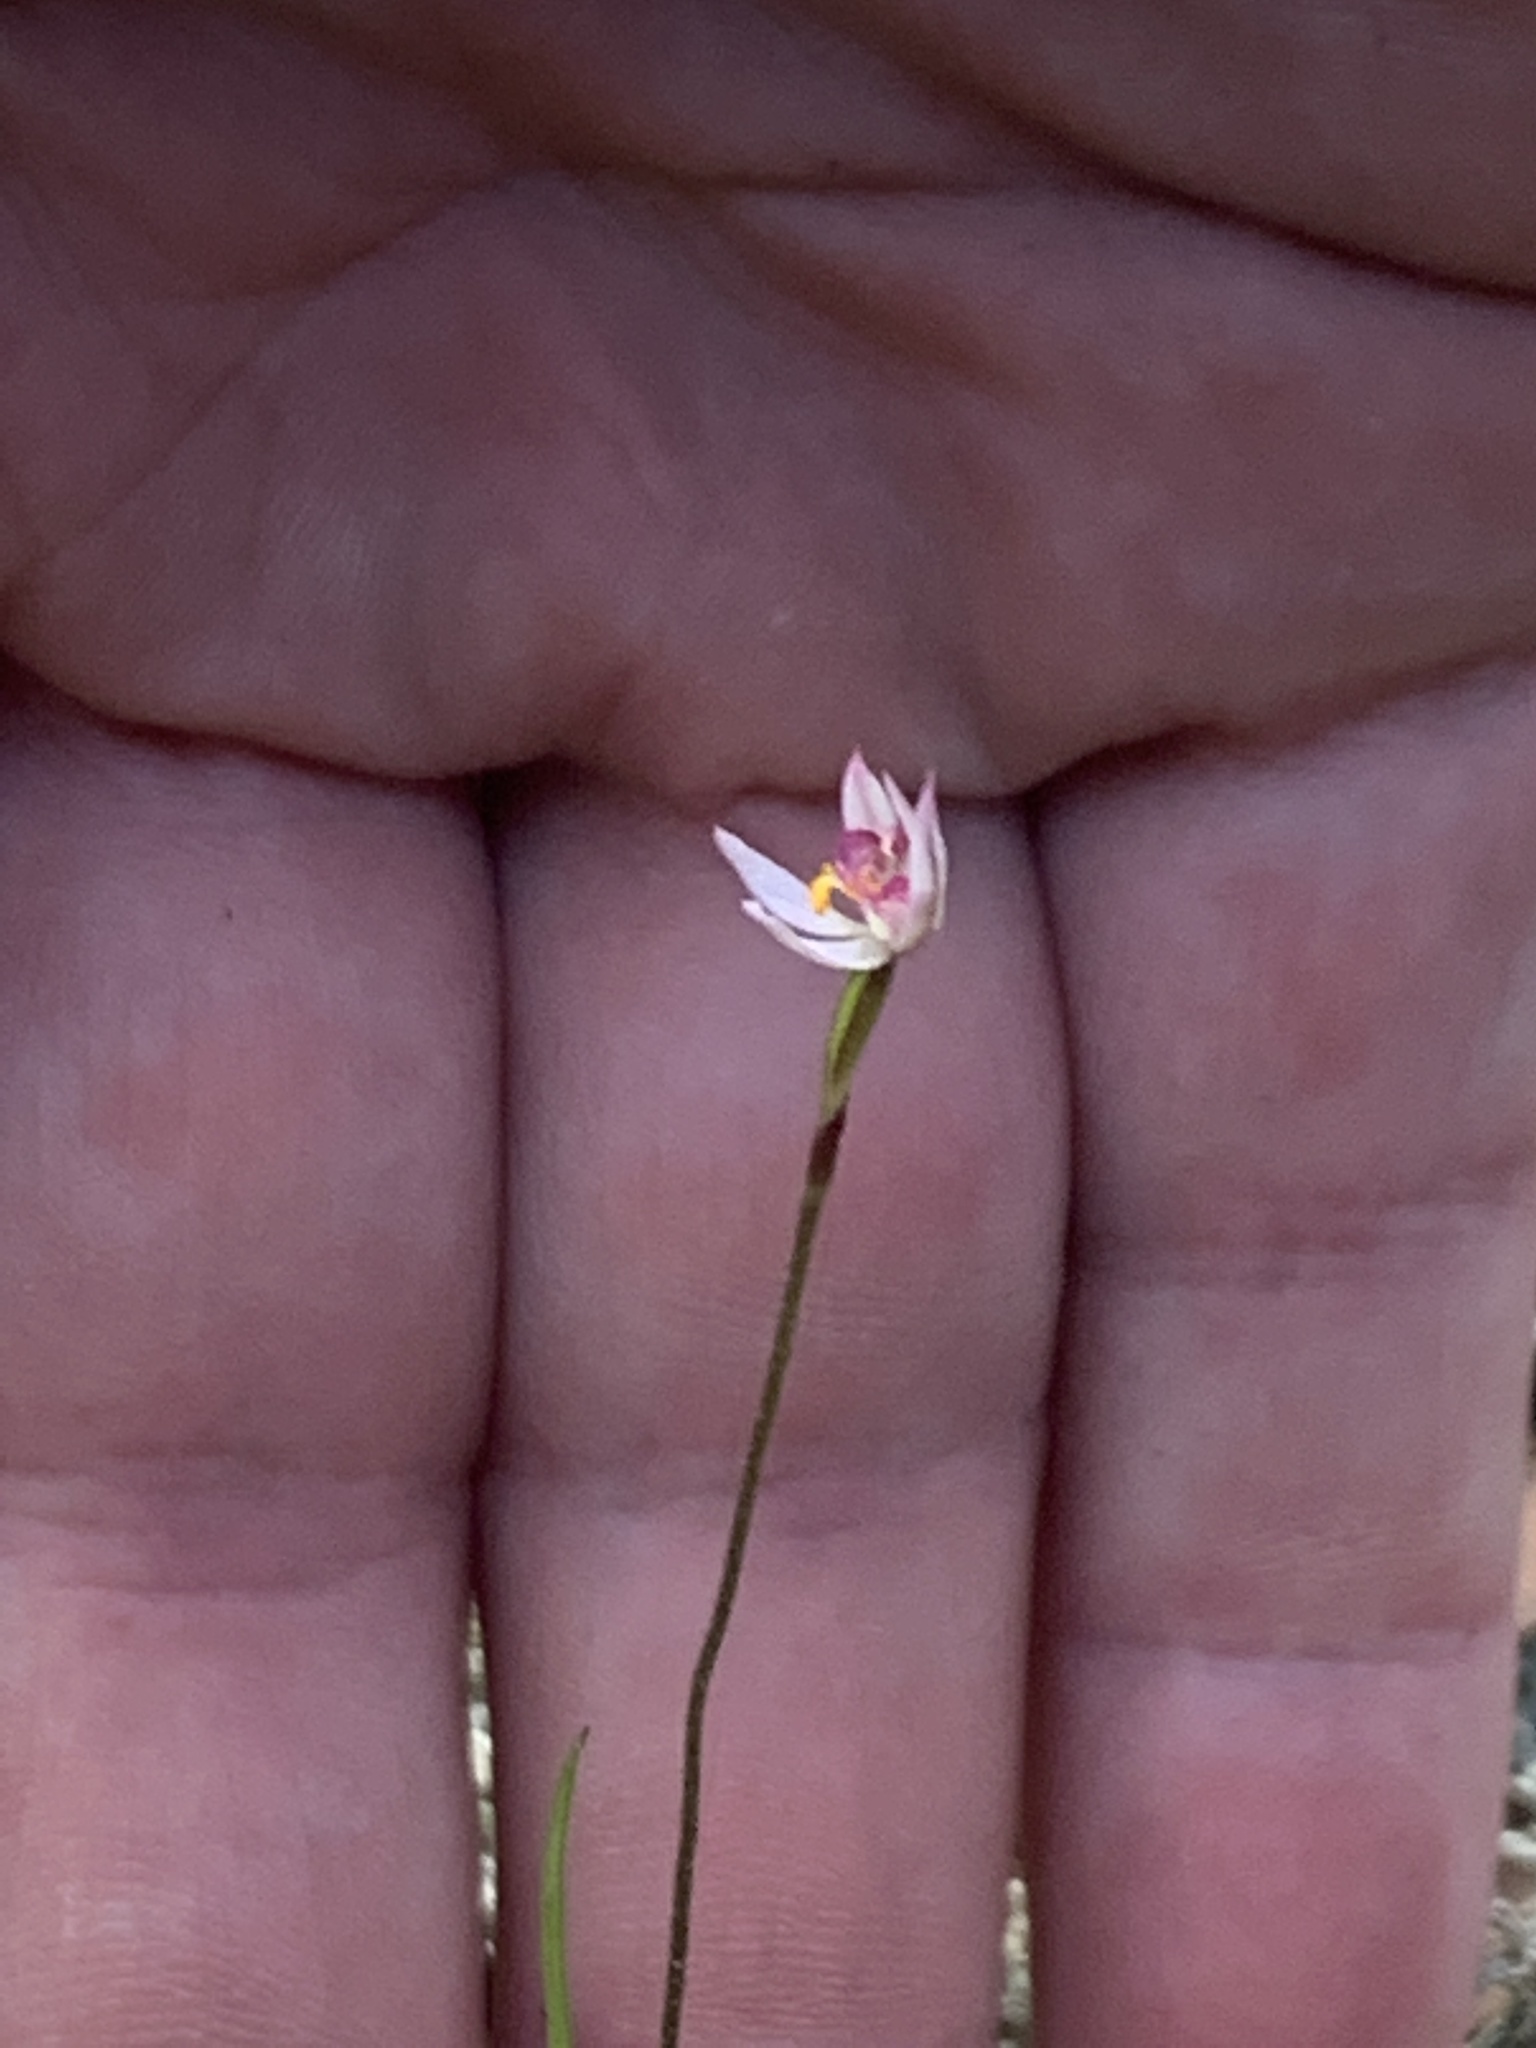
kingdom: Plantae
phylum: Tracheophyta
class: Liliopsida
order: Asparagales
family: Orchidaceae
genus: Caladenia
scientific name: Caladenia alata
